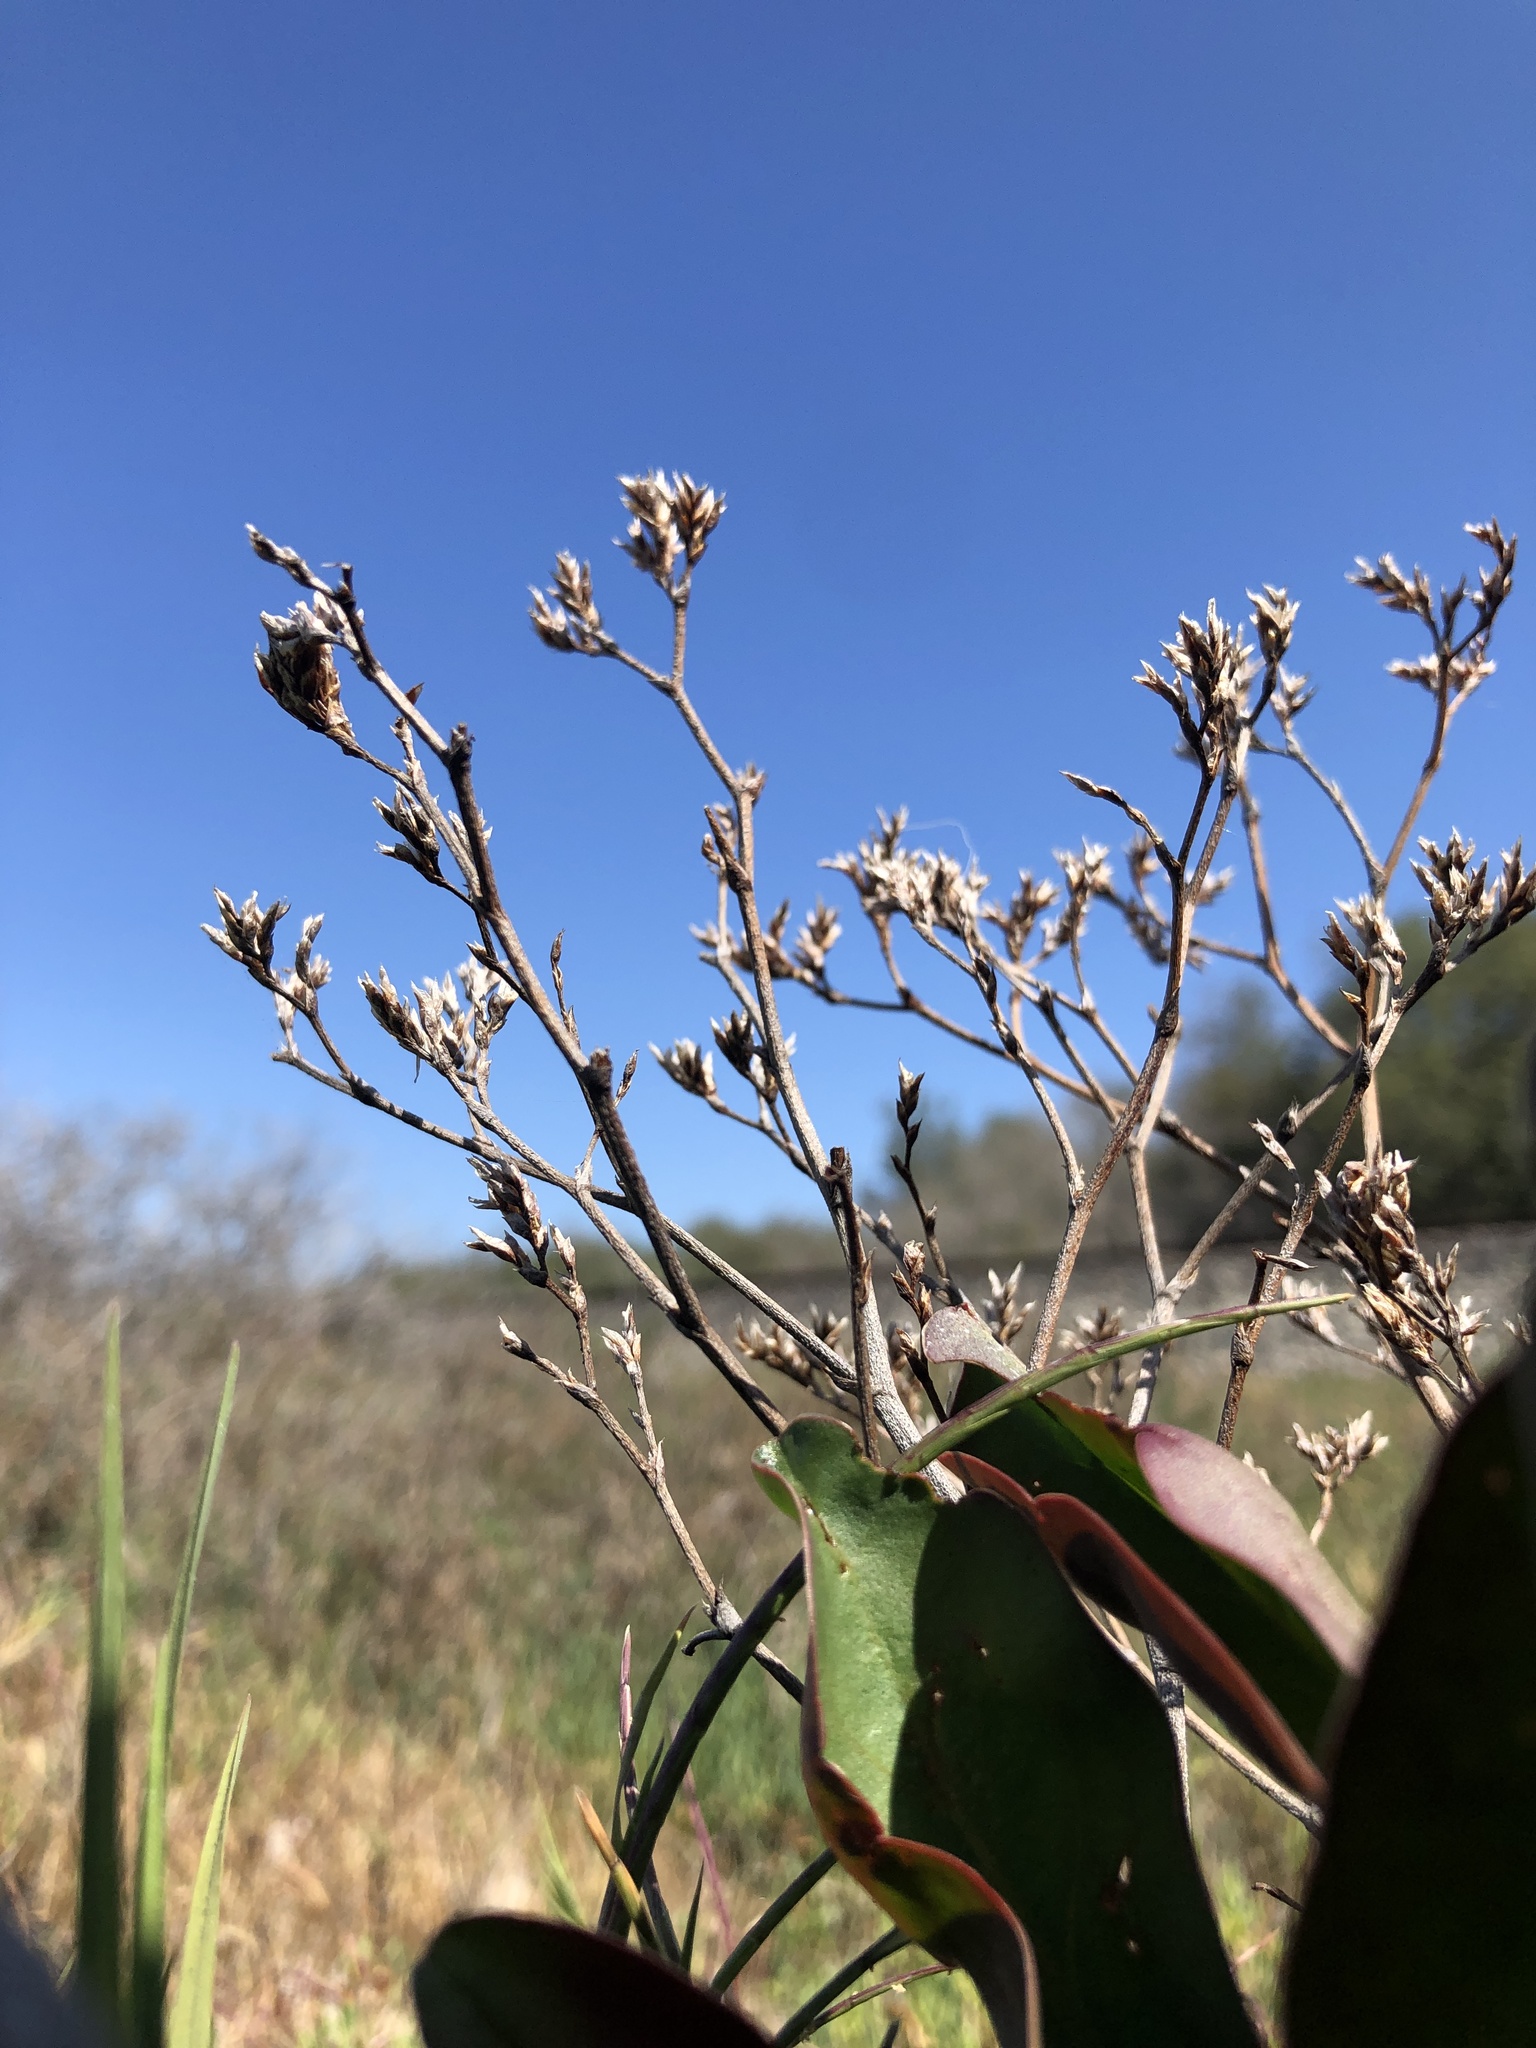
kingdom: Plantae
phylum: Tracheophyta
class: Magnoliopsida
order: Caryophyllales
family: Plumbaginaceae
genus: Limonium
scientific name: Limonium californicum
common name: Marsh-rosemary
